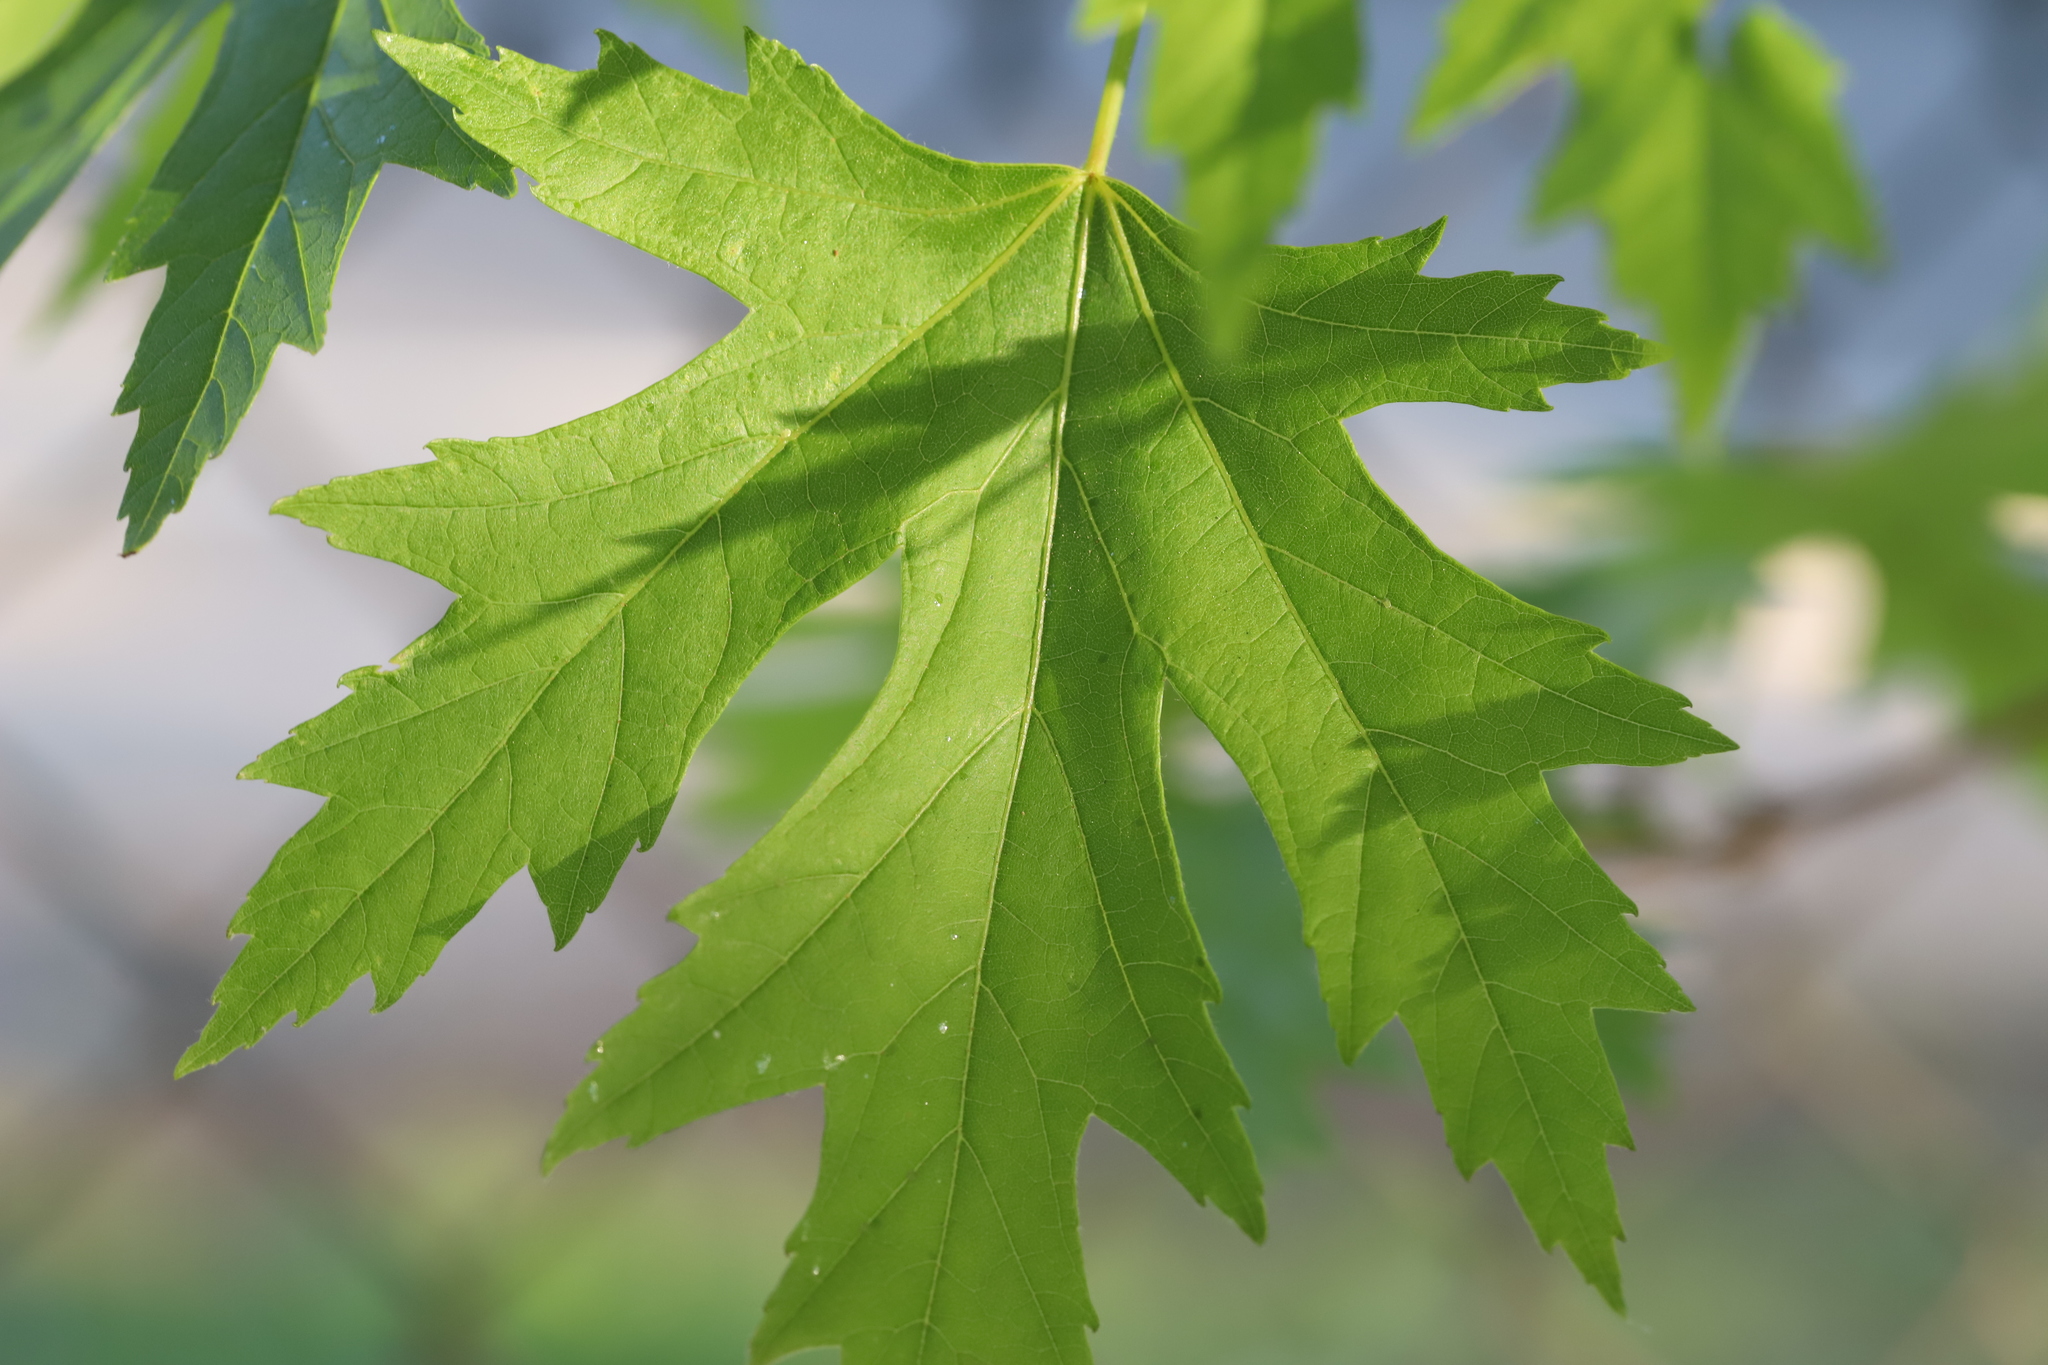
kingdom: Plantae
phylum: Tracheophyta
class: Magnoliopsida
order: Sapindales
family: Sapindaceae
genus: Acer
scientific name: Acer saccharinum
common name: Silver maple
